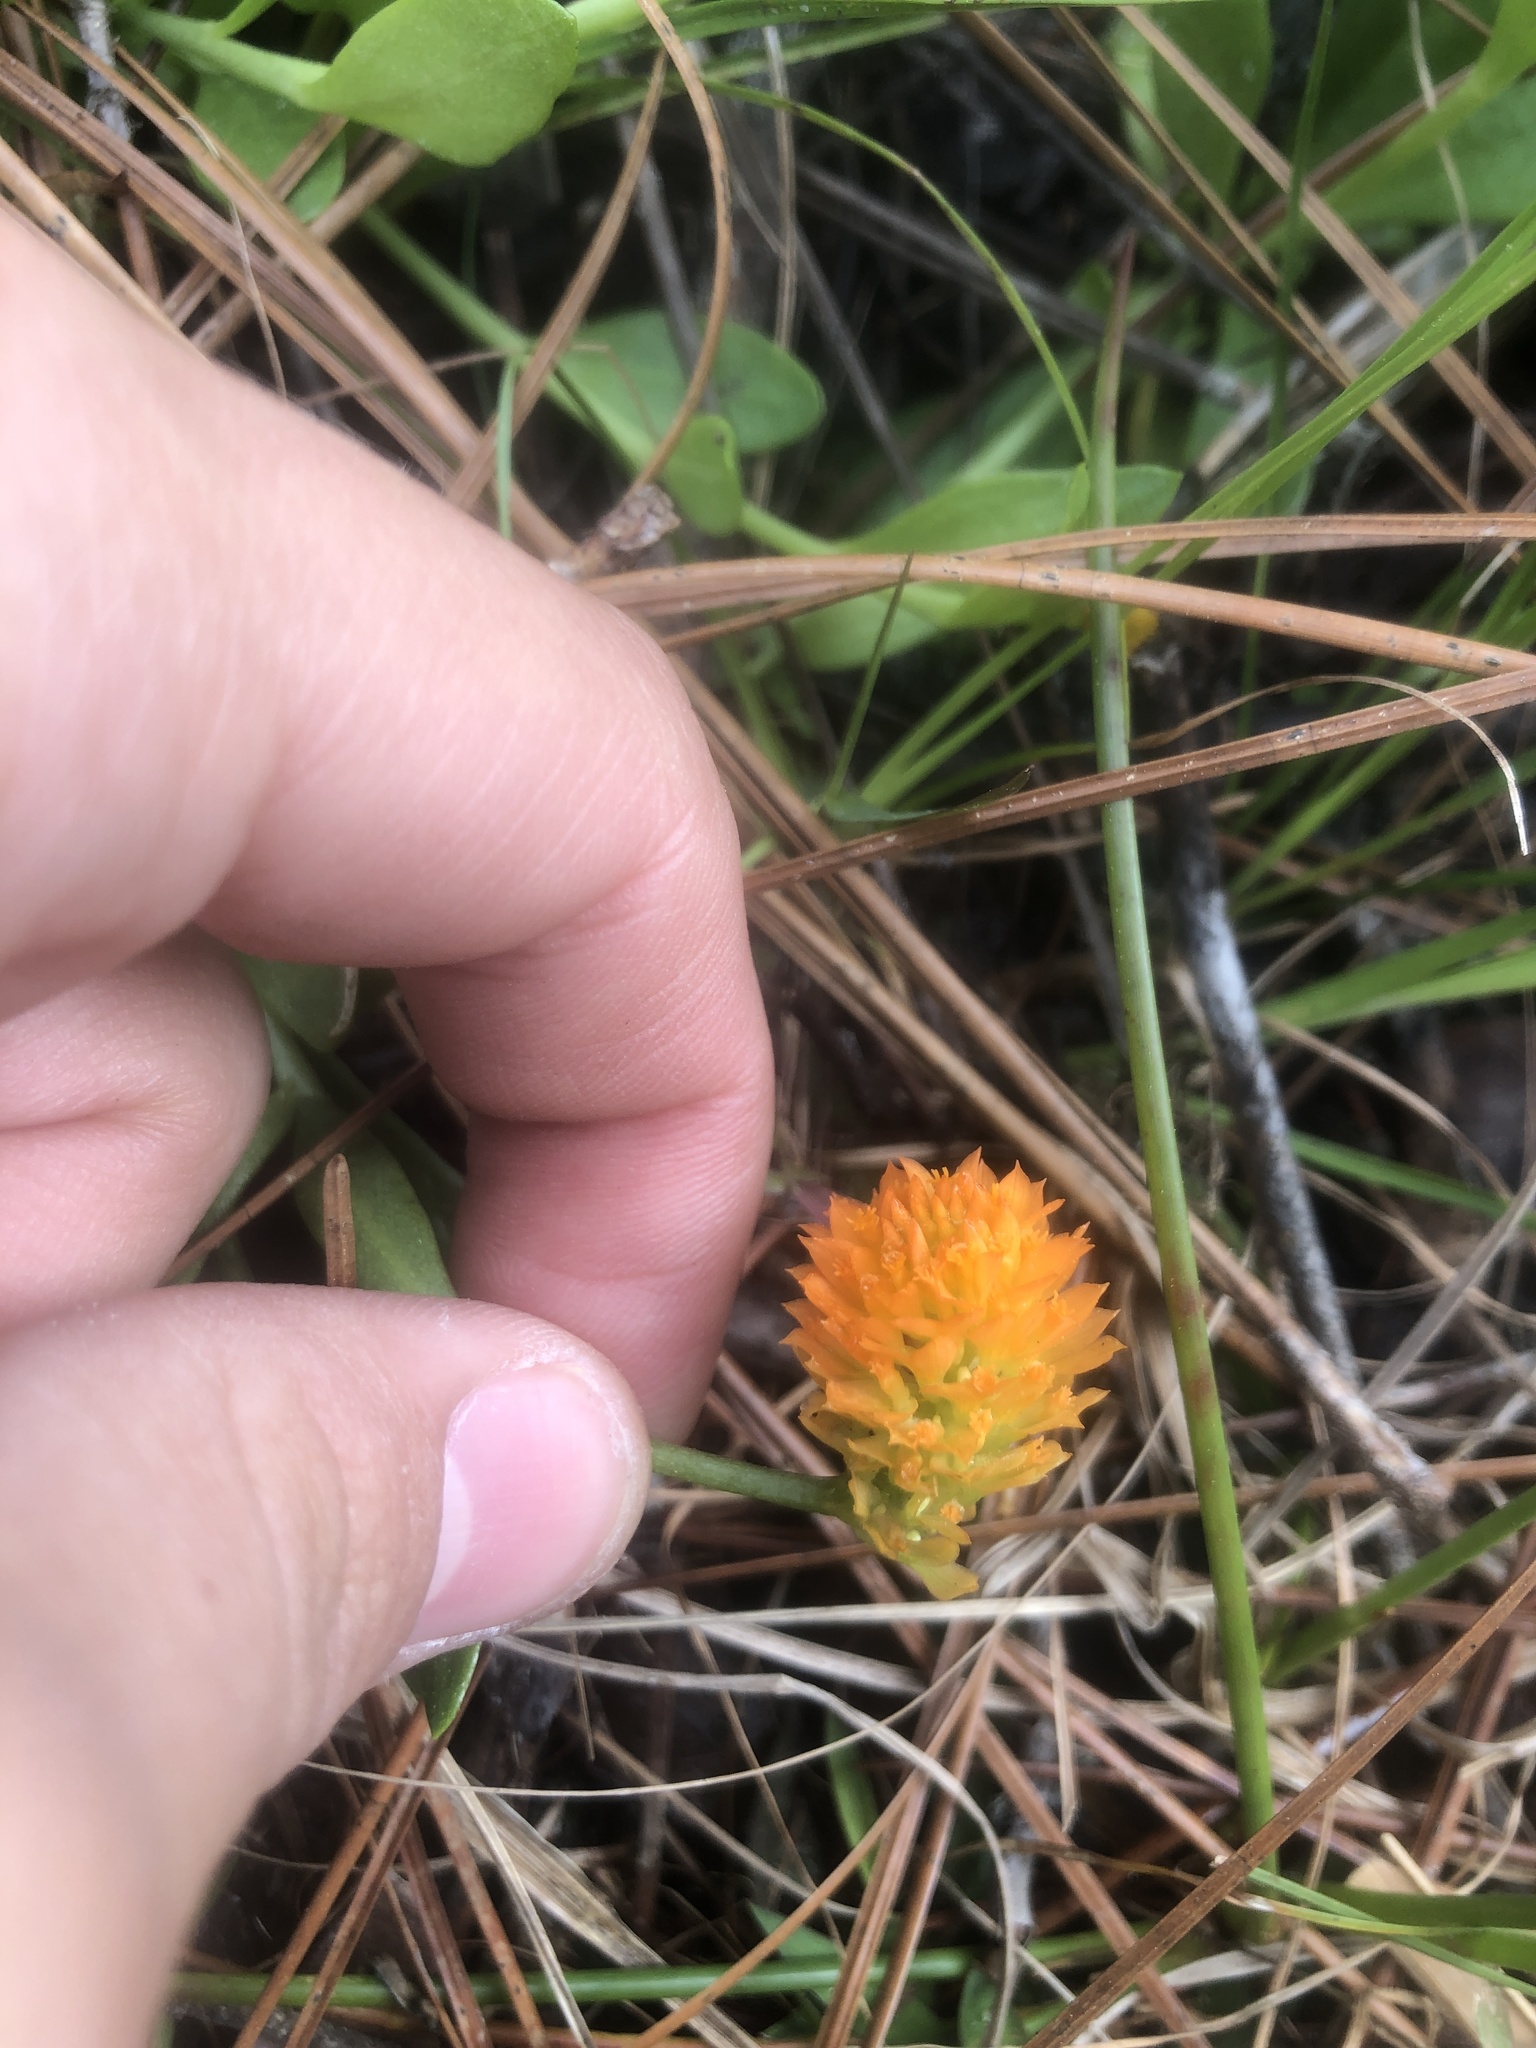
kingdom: Plantae
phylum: Tracheophyta
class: Magnoliopsida
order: Fabales
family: Polygalaceae
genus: Polygala
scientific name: Polygala lutea
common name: Orange milkwort
